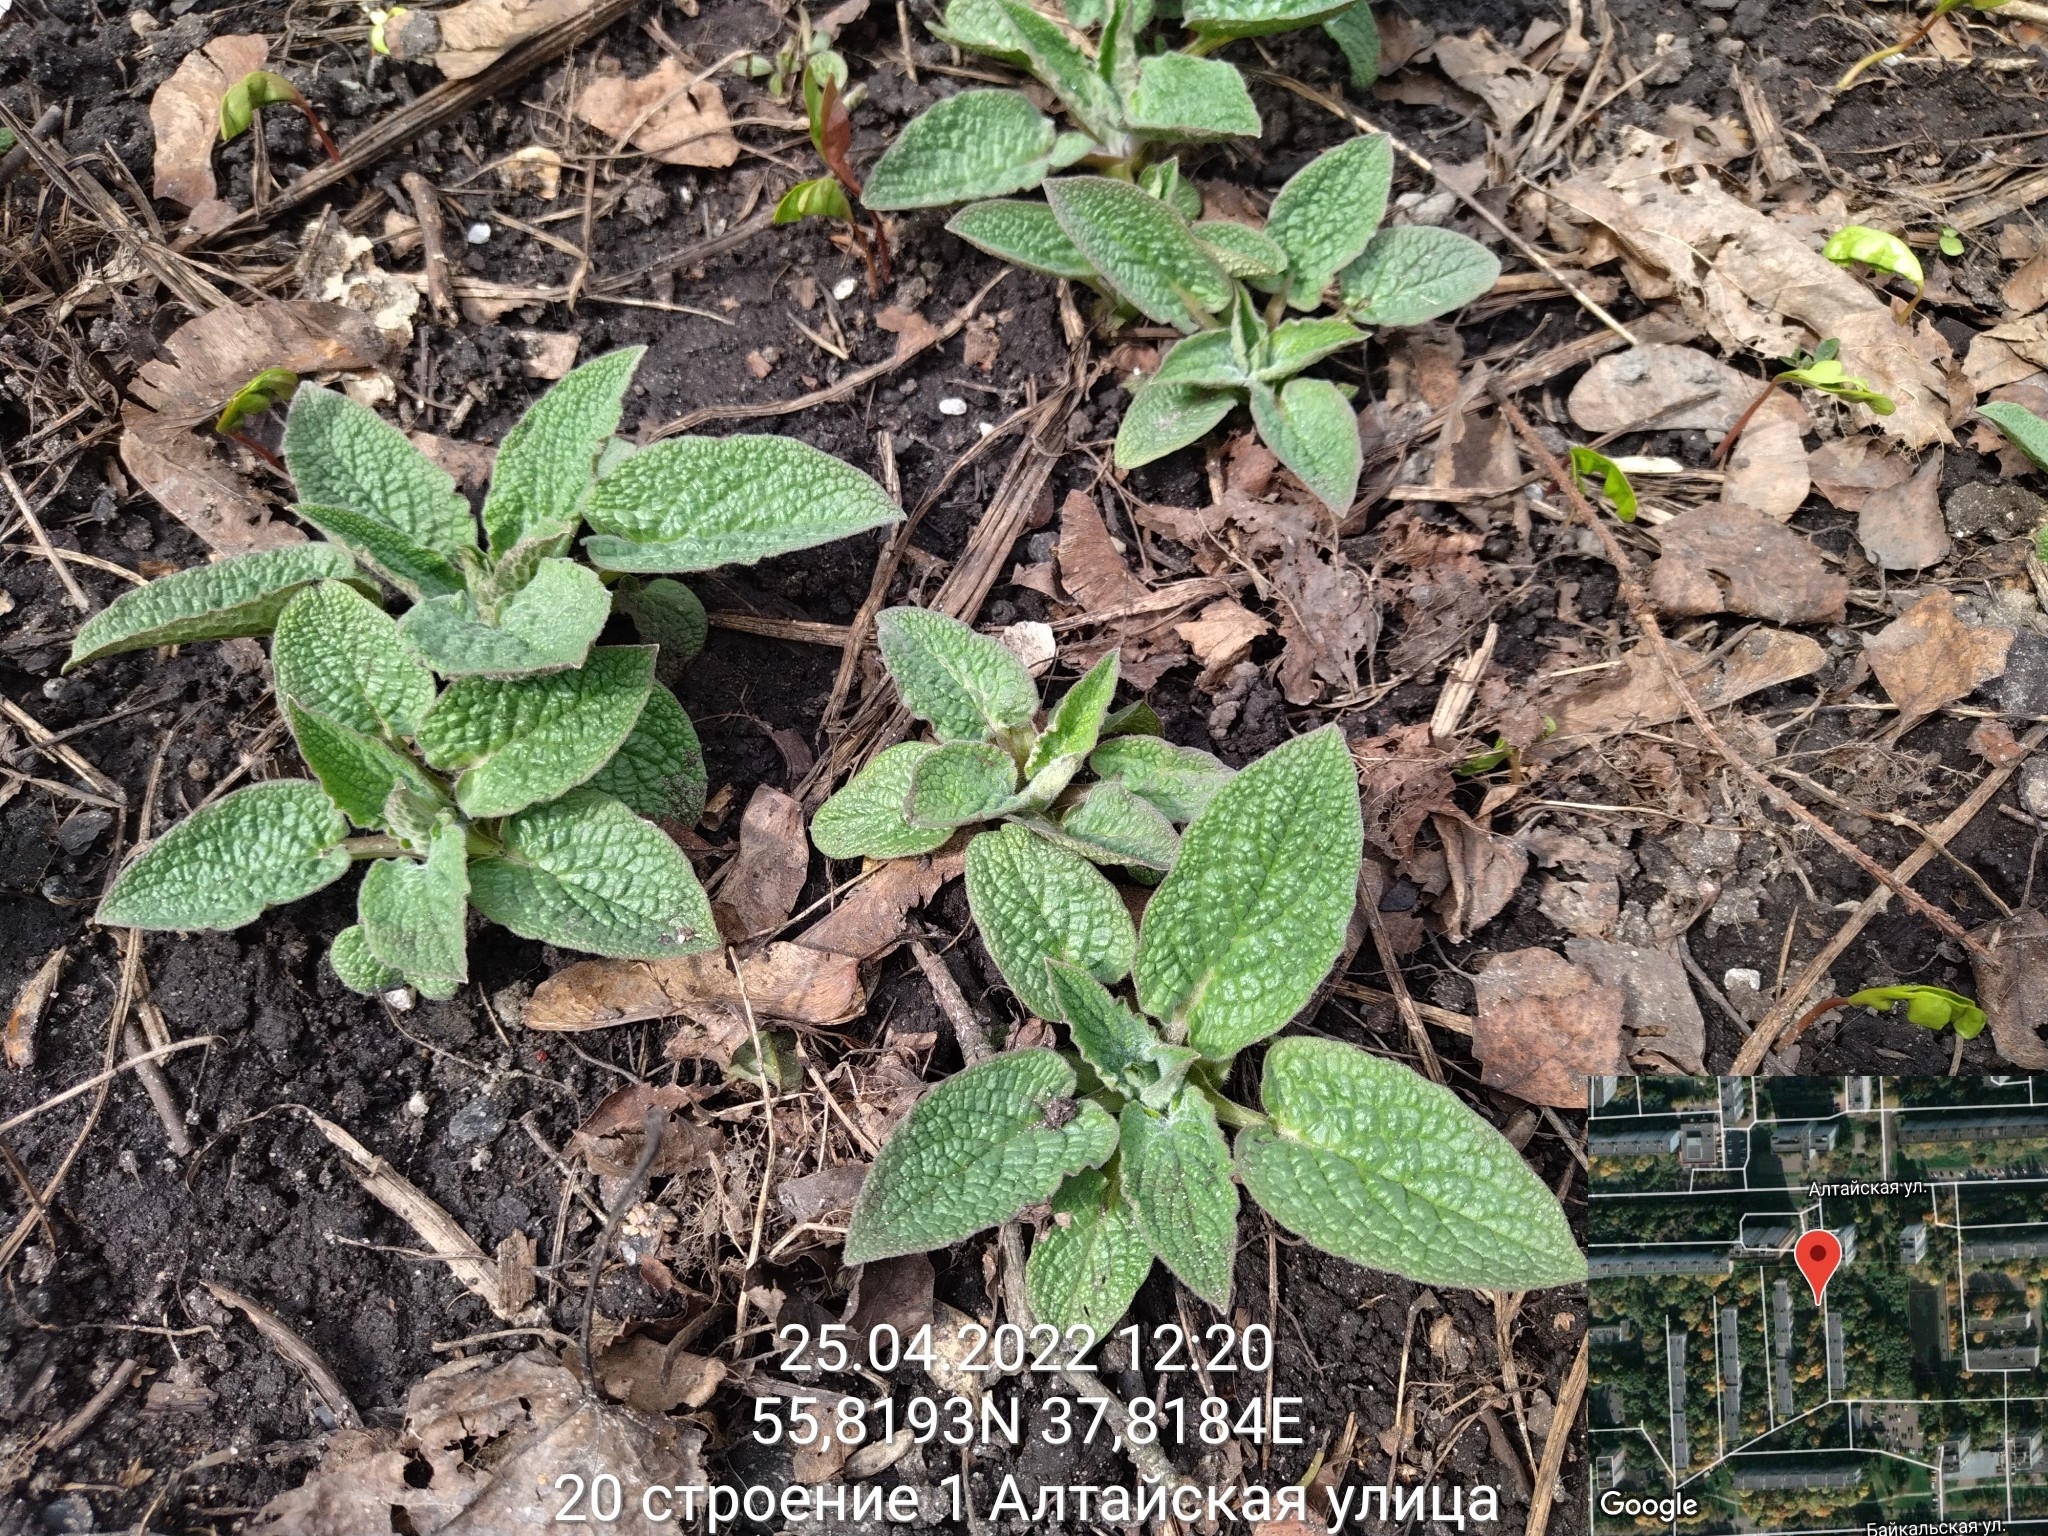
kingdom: Plantae
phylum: Tracheophyta
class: Magnoliopsida
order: Boraginales
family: Boraginaceae
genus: Symphytum
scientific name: Symphytum
